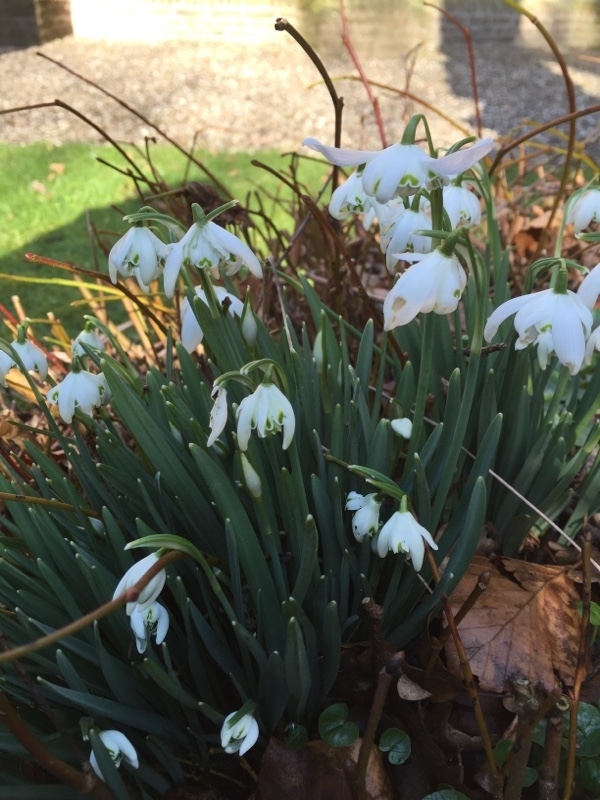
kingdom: Plantae
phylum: Tracheophyta
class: Liliopsida
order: Asparagales
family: Amaryllidaceae
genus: Galanthus
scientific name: Galanthus nivalis
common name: Snowdrop
